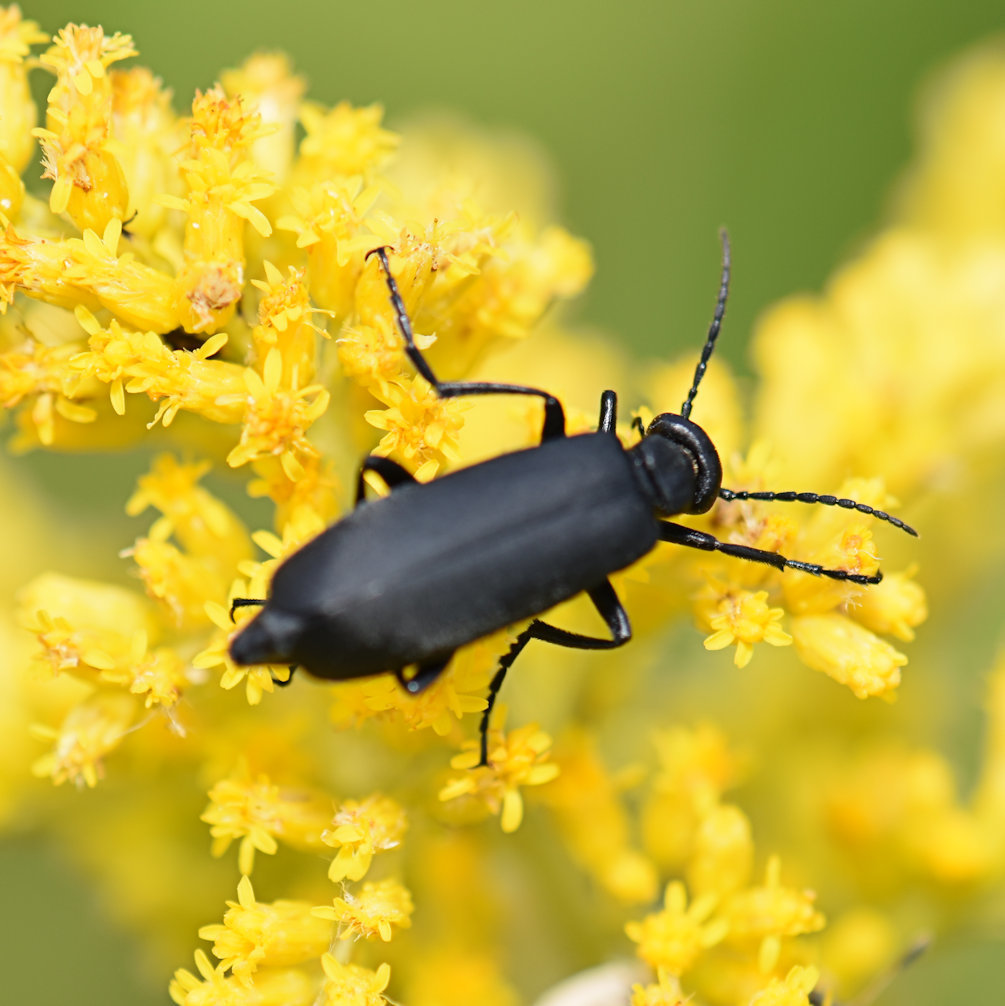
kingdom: Animalia
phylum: Arthropoda
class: Insecta
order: Coleoptera
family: Meloidae
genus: Epicauta
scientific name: Epicauta pensylvanica
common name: Black blister beetle
